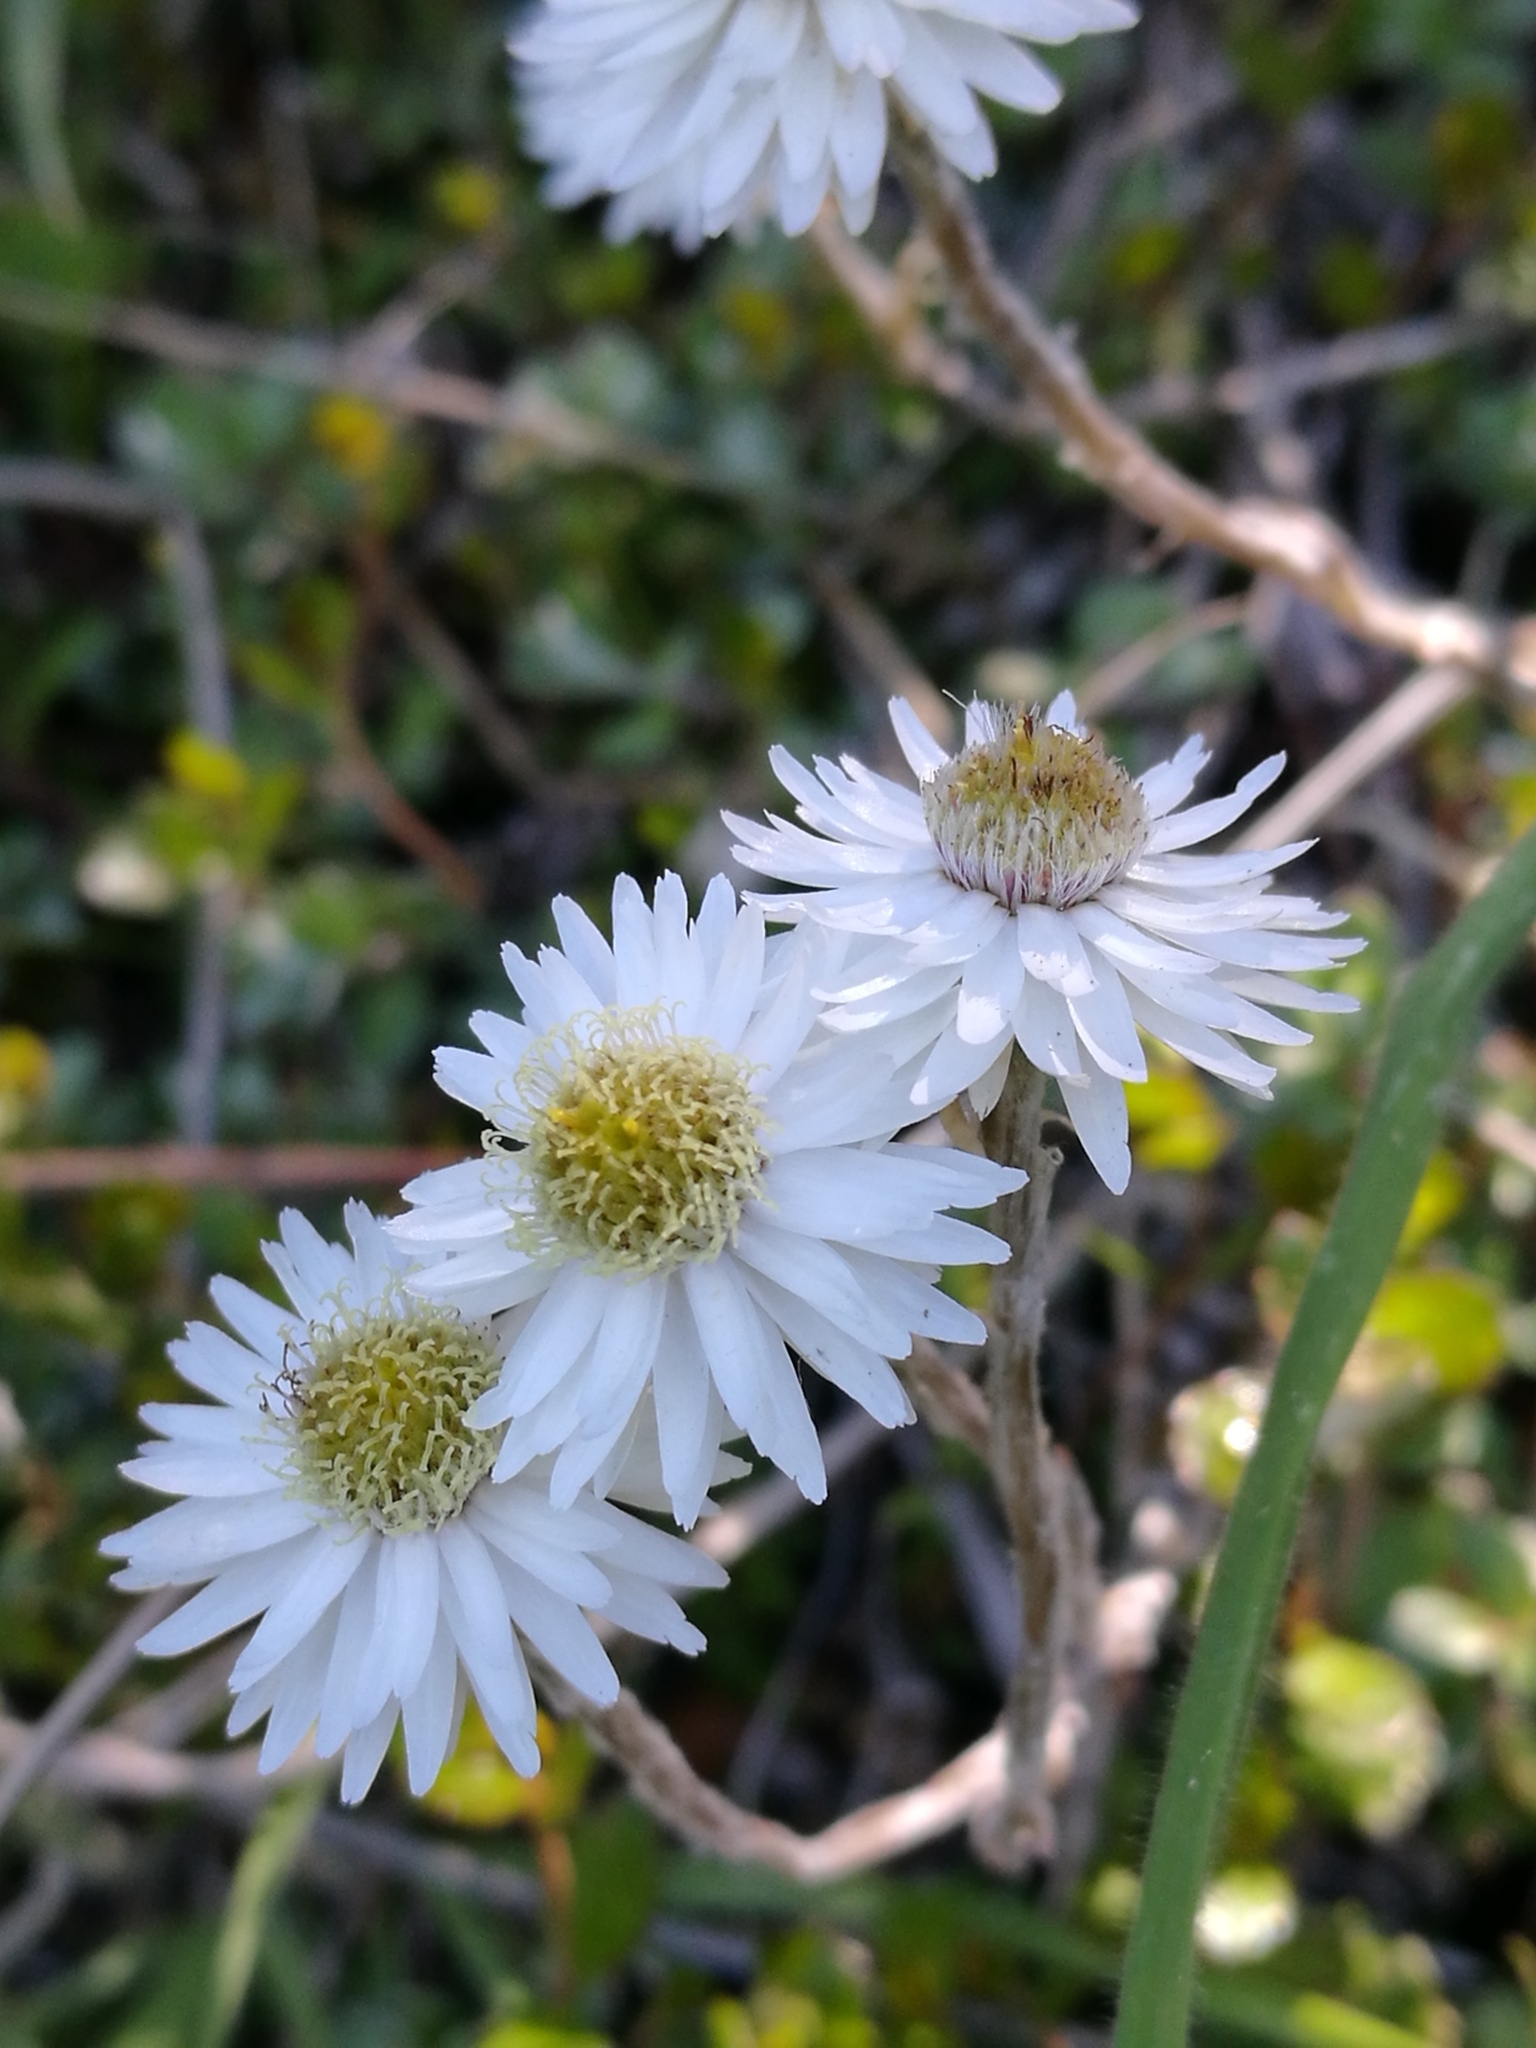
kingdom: Plantae
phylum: Tracheophyta
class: Magnoliopsida
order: Asterales
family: Asteraceae
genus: Anaphalioides
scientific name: Anaphalioides bellidioides
